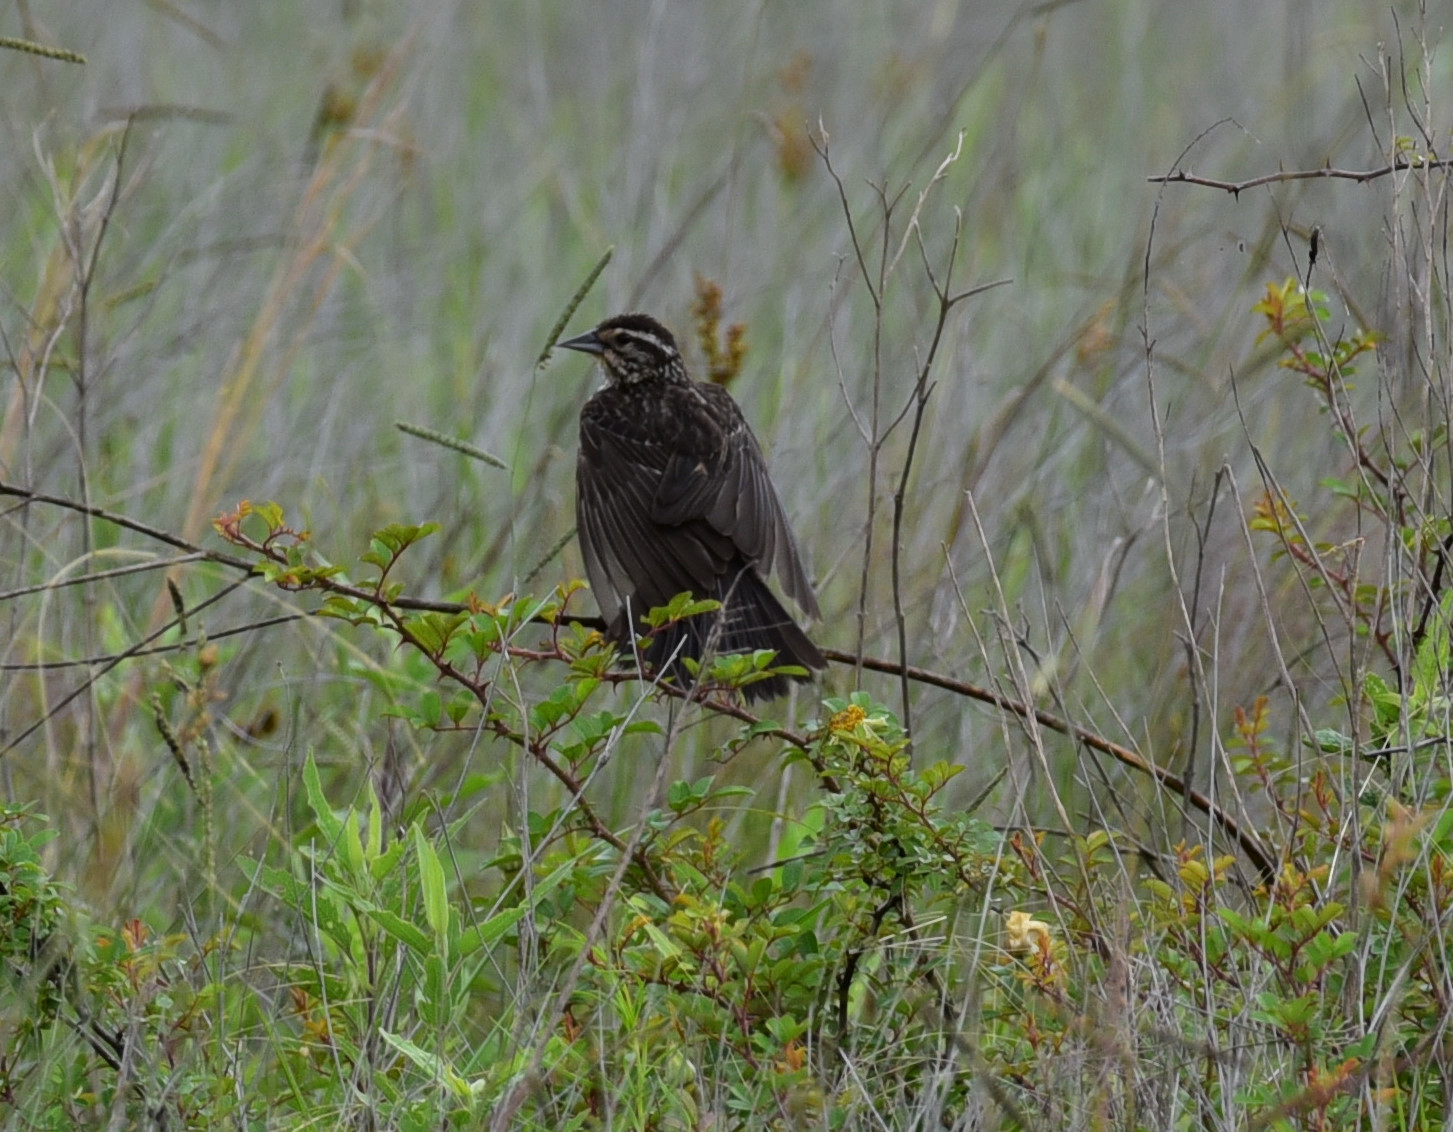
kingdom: Animalia
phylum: Chordata
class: Aves
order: Passeriformes
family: Icteridae
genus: Agelaius
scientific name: Agelaius phoeniceus
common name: Red-winged blackbird
